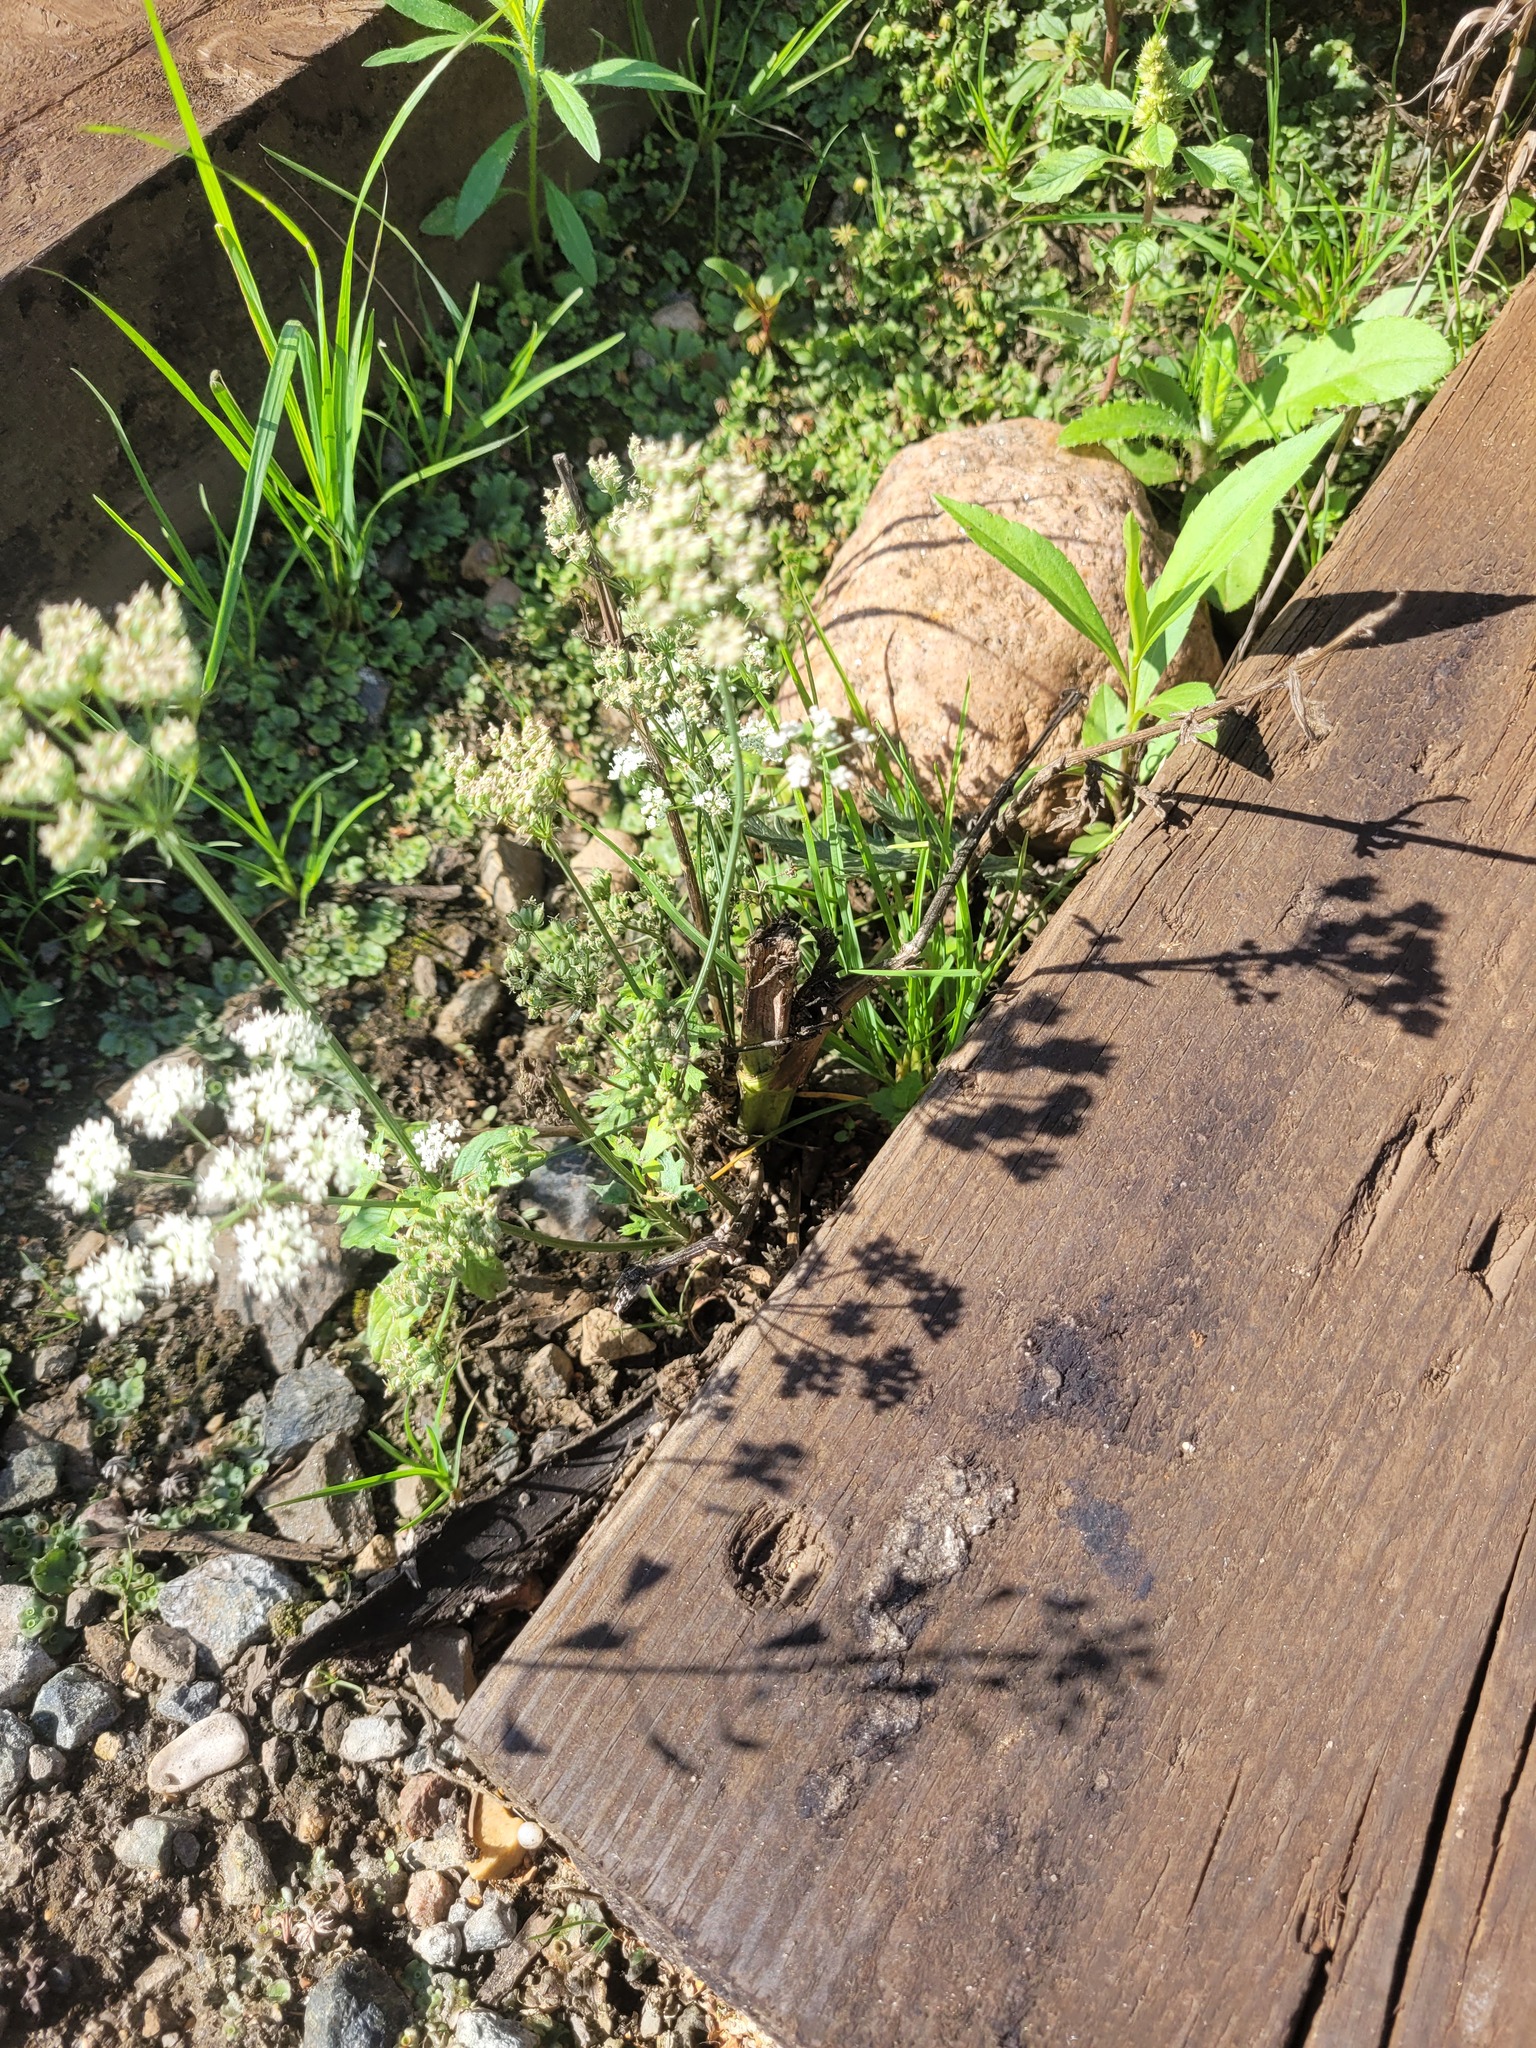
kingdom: Plantae
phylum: Tracheophyta
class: Magnoliopsida
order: Apiales
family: Apiaceae
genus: Seseli
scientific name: Seseli libanotis
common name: Mooncarrot
